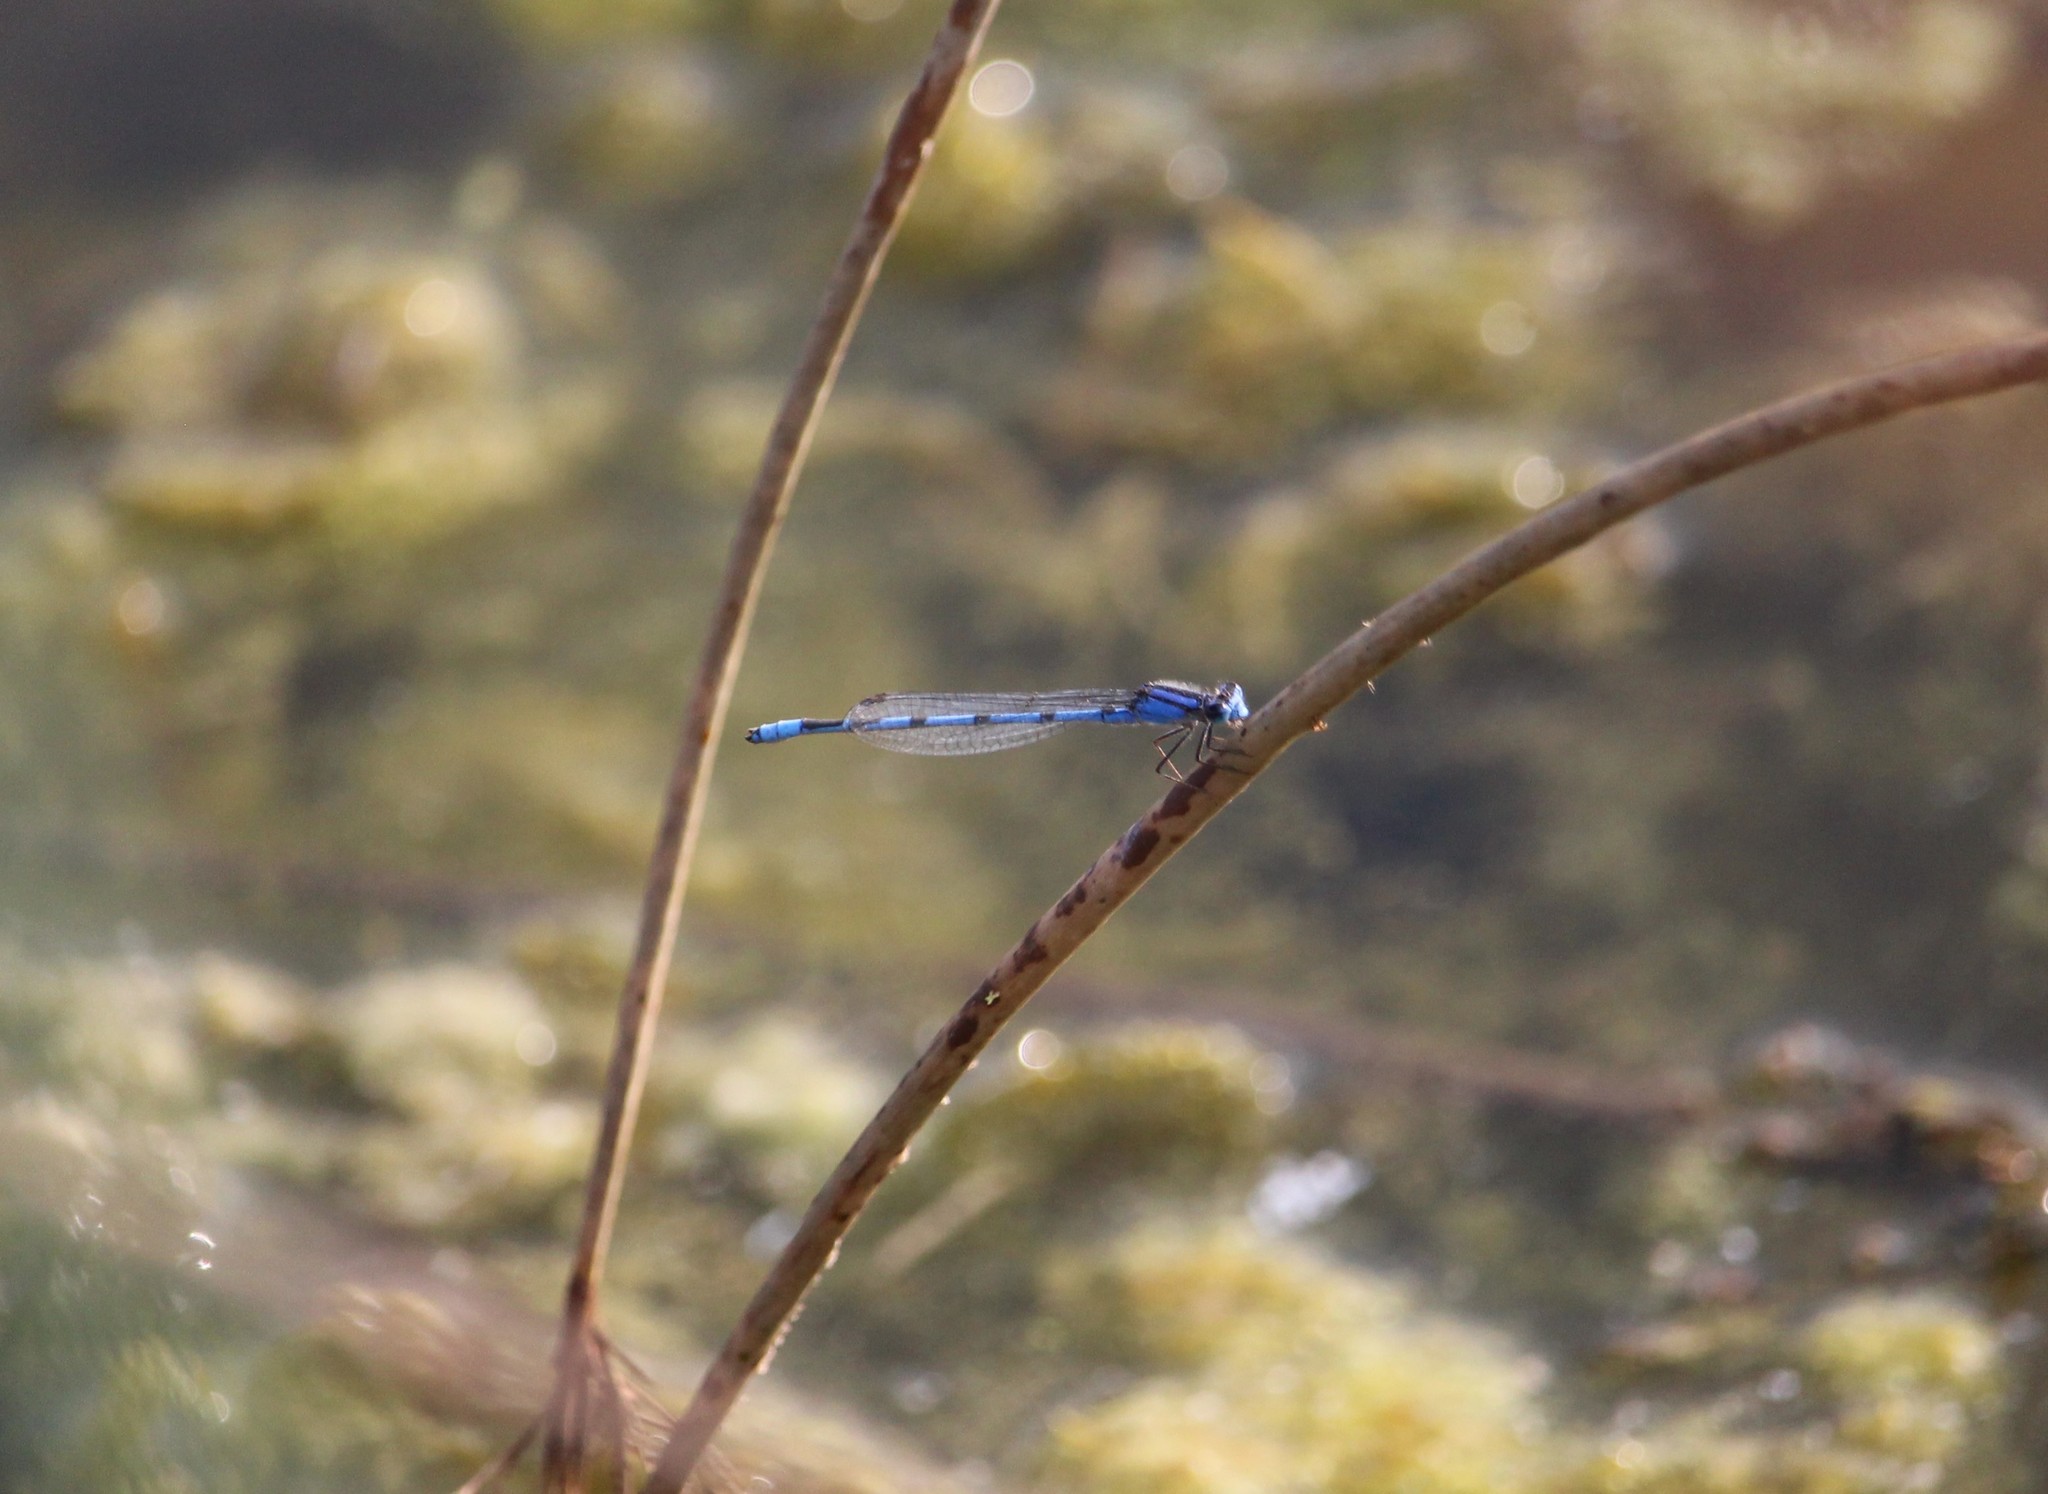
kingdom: Animalia
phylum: Arthropoda
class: Insecta
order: Odonata
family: Coenagrionidae
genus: Enallagma
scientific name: Enallagma civile
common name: Damselfly
